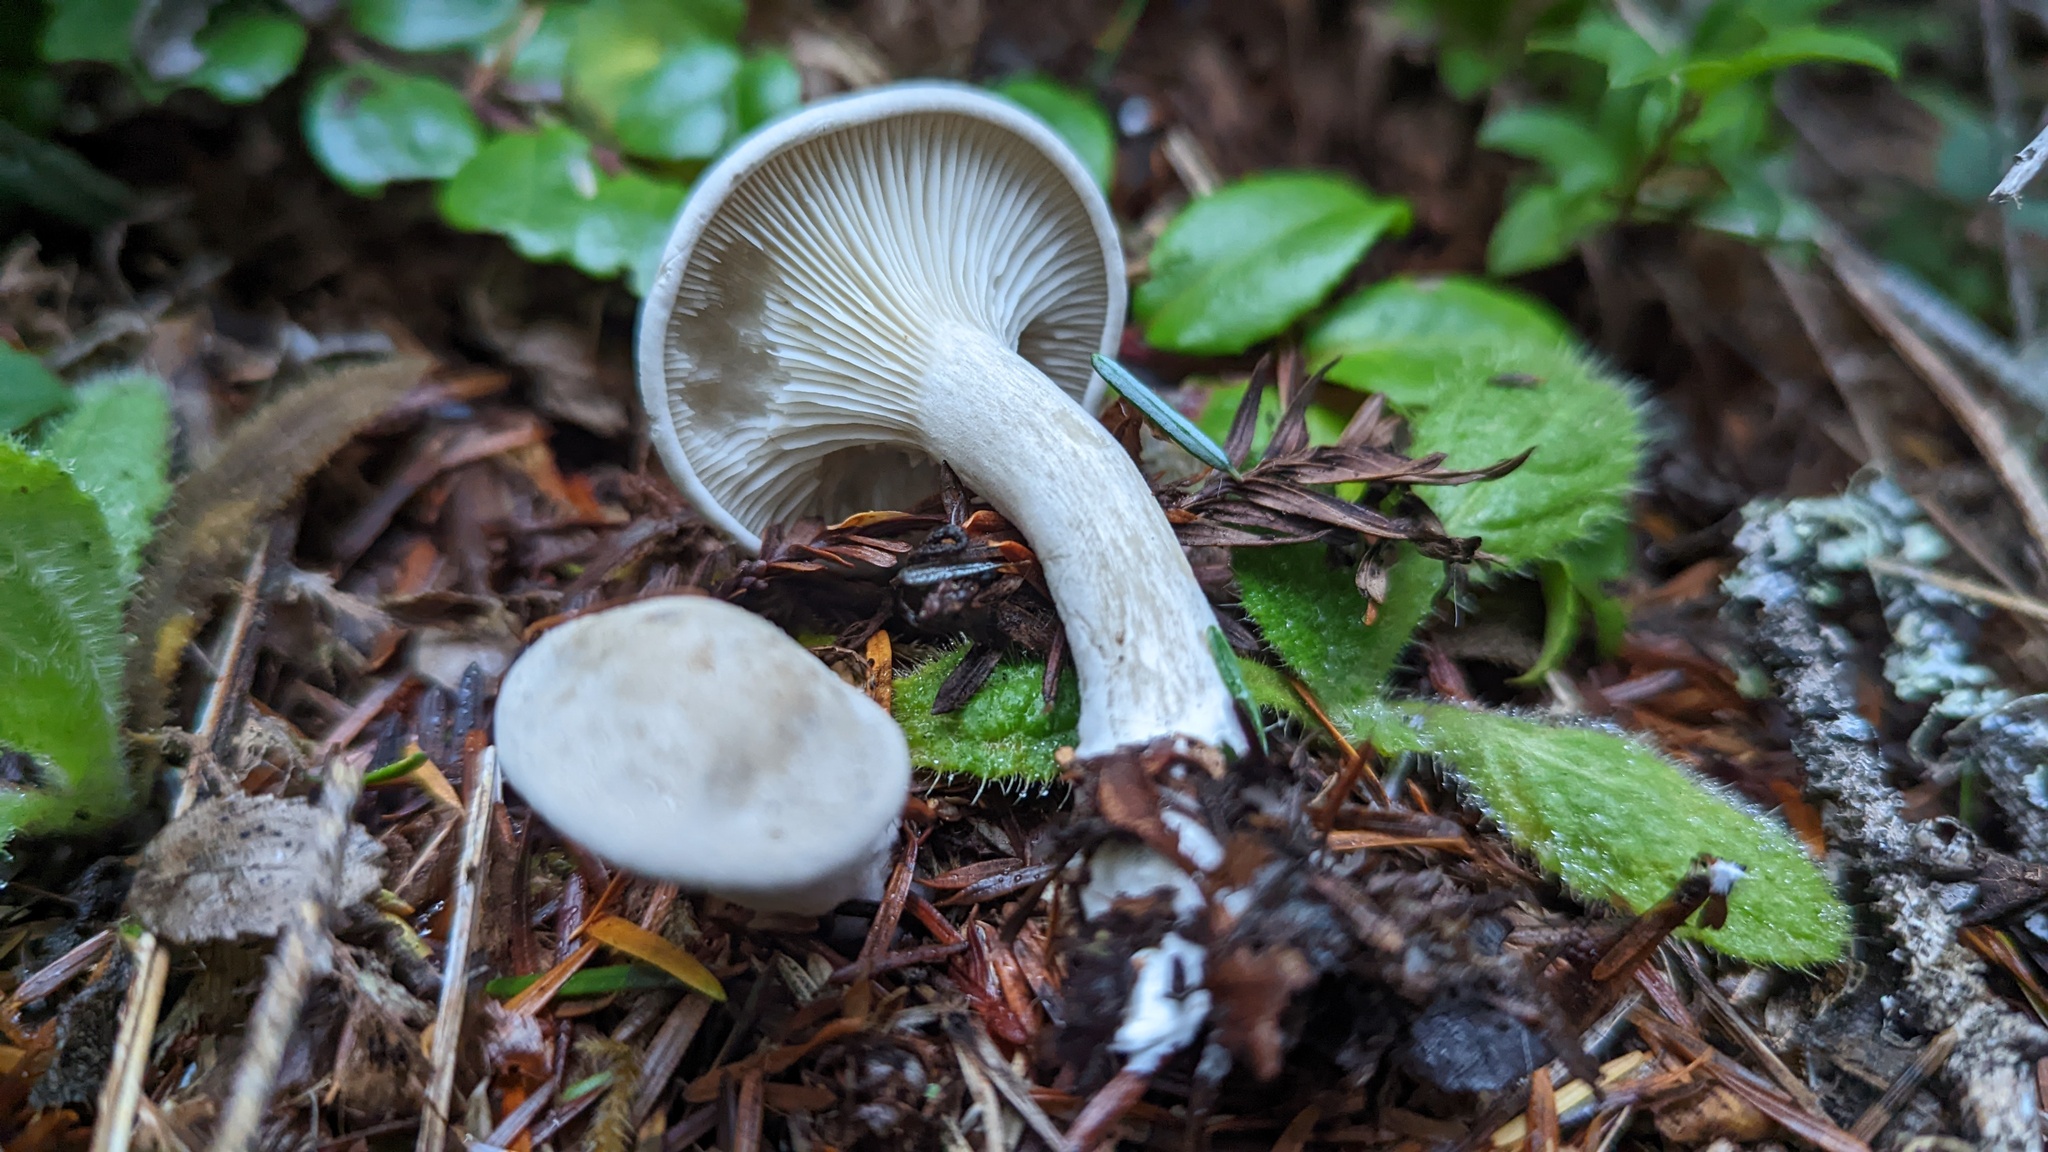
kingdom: Fungi
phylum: Basidiomycota
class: Agaricomycetes
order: Agaricales
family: Entolomataceae
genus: Clitopilus
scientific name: Clitopilus prunulus
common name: The miller
